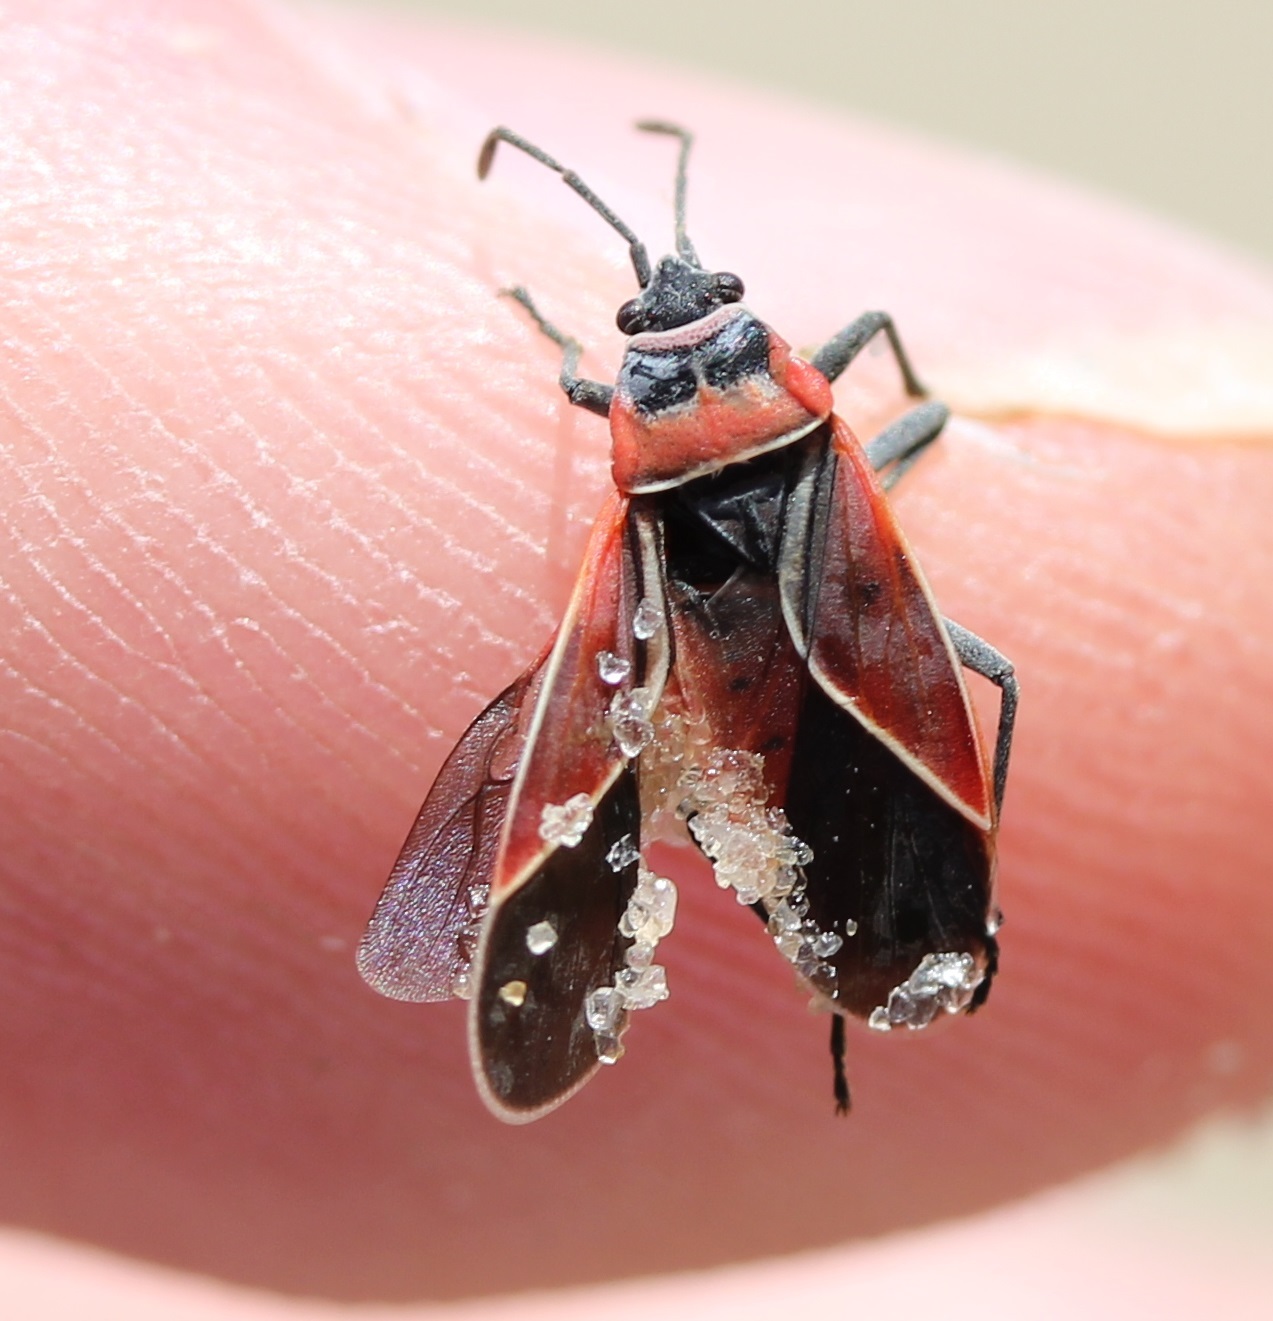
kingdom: Animalia
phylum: Arthropoda
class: Insecta
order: Hemiptera
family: Lygaeidae
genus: Neacoryphus
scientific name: Neacoryphus bicrucis
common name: Lygaeid bug
